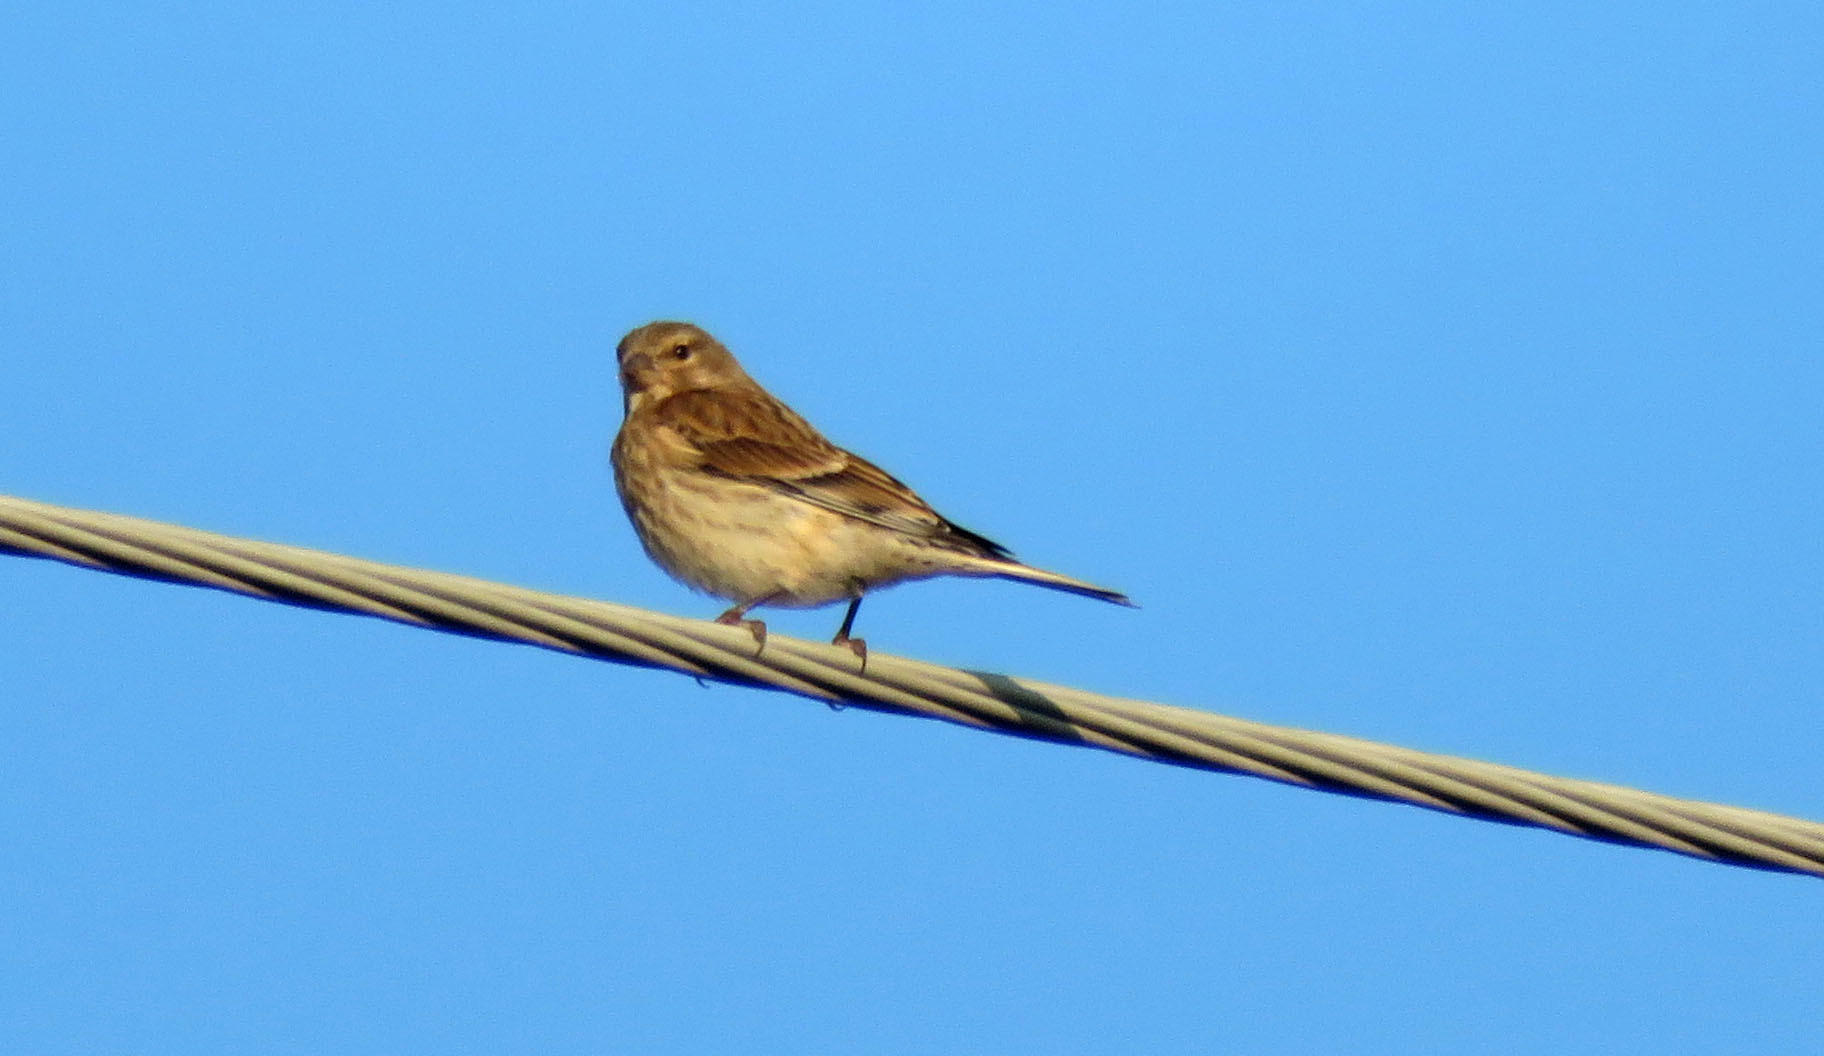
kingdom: Animalia
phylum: Chordata
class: Aves
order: Passeriformes
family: Fringillidae
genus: Linaria
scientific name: Linaria cannabina
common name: Common linnet
